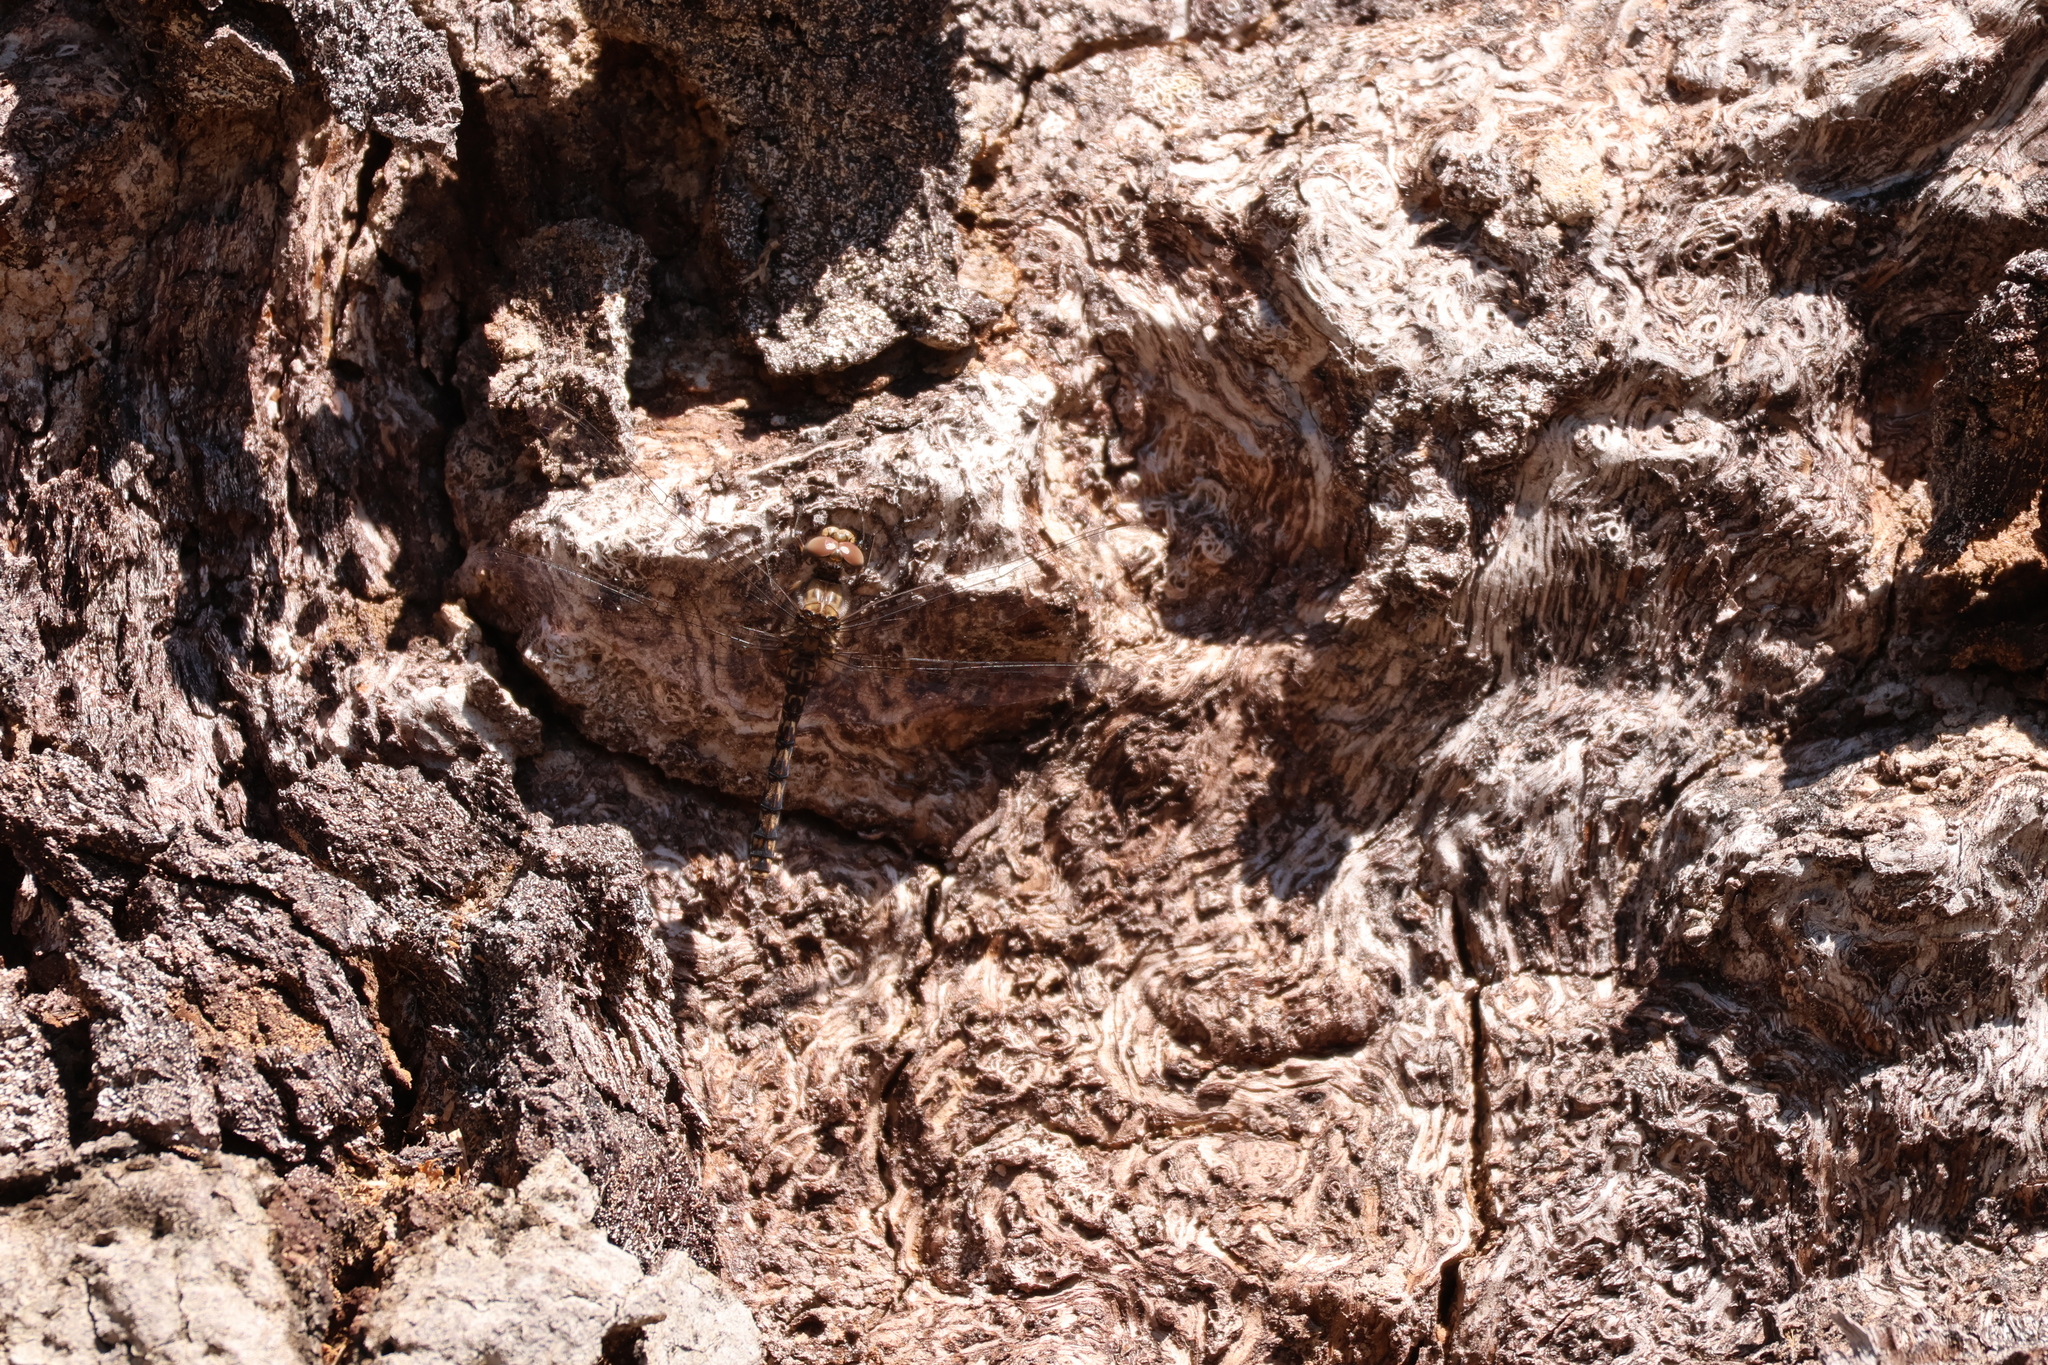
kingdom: Animalia
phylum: Arthropoda
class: Insecta
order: Odonata
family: Libellulidae
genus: Paltothemis
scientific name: Paltothemis lineatipes
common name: Red rock skimmer
